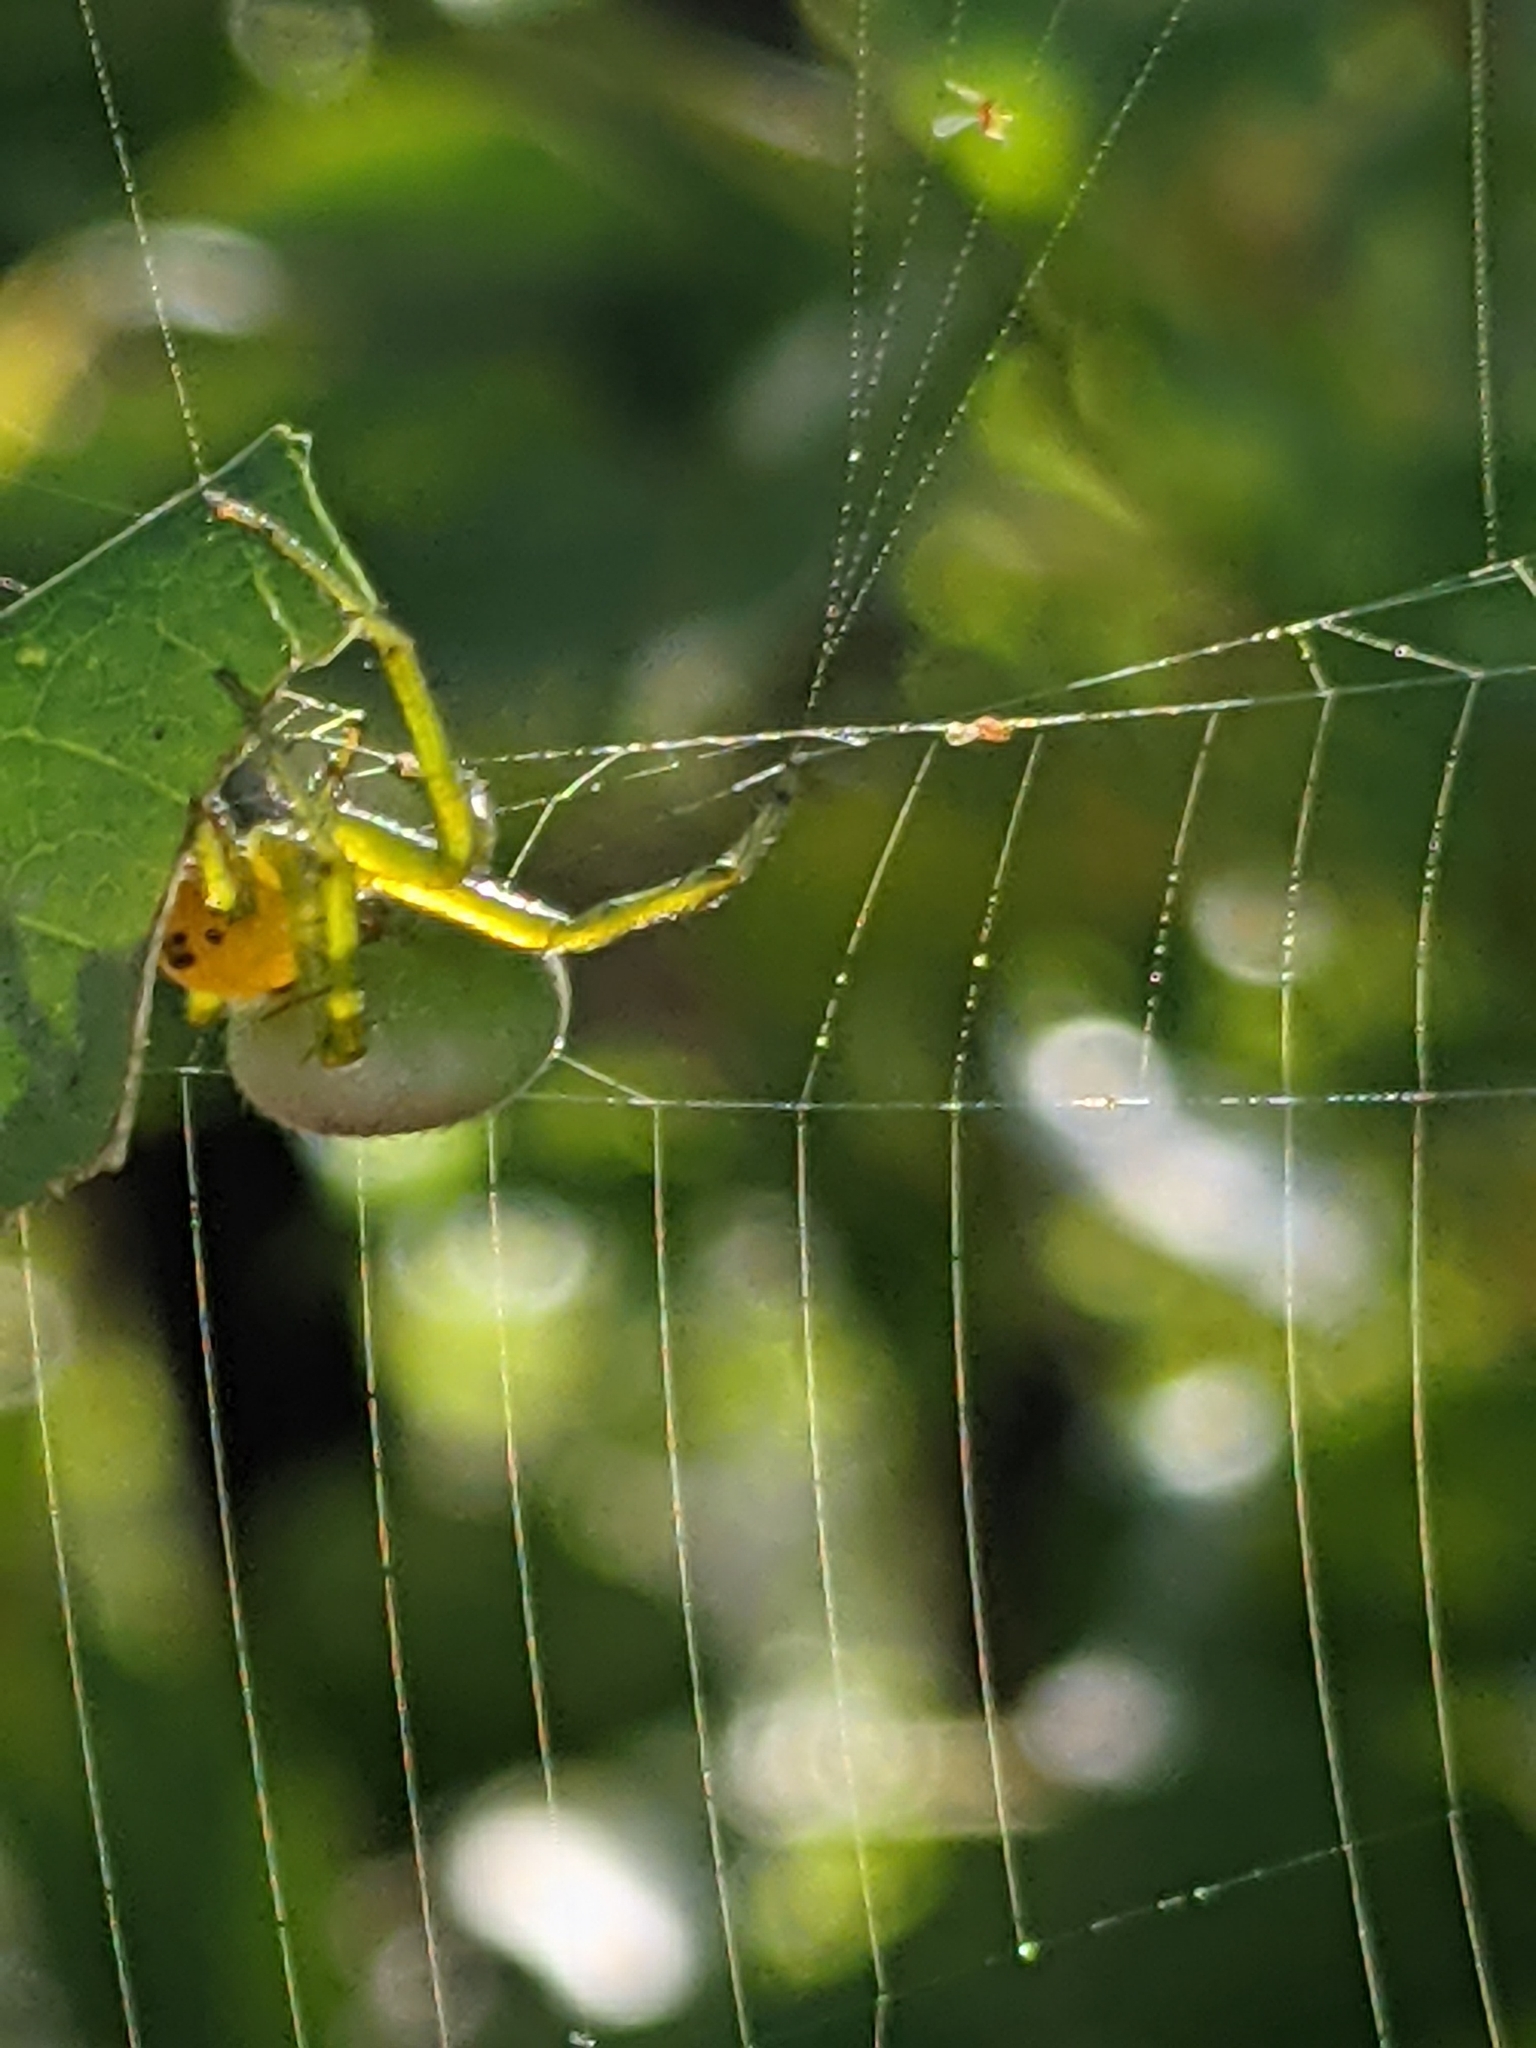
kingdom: Animalia
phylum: Arthropoda
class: Arachnida
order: Araneae
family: Araneidae
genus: Aoaraneus
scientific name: Aoaraneus pentagrammicus
